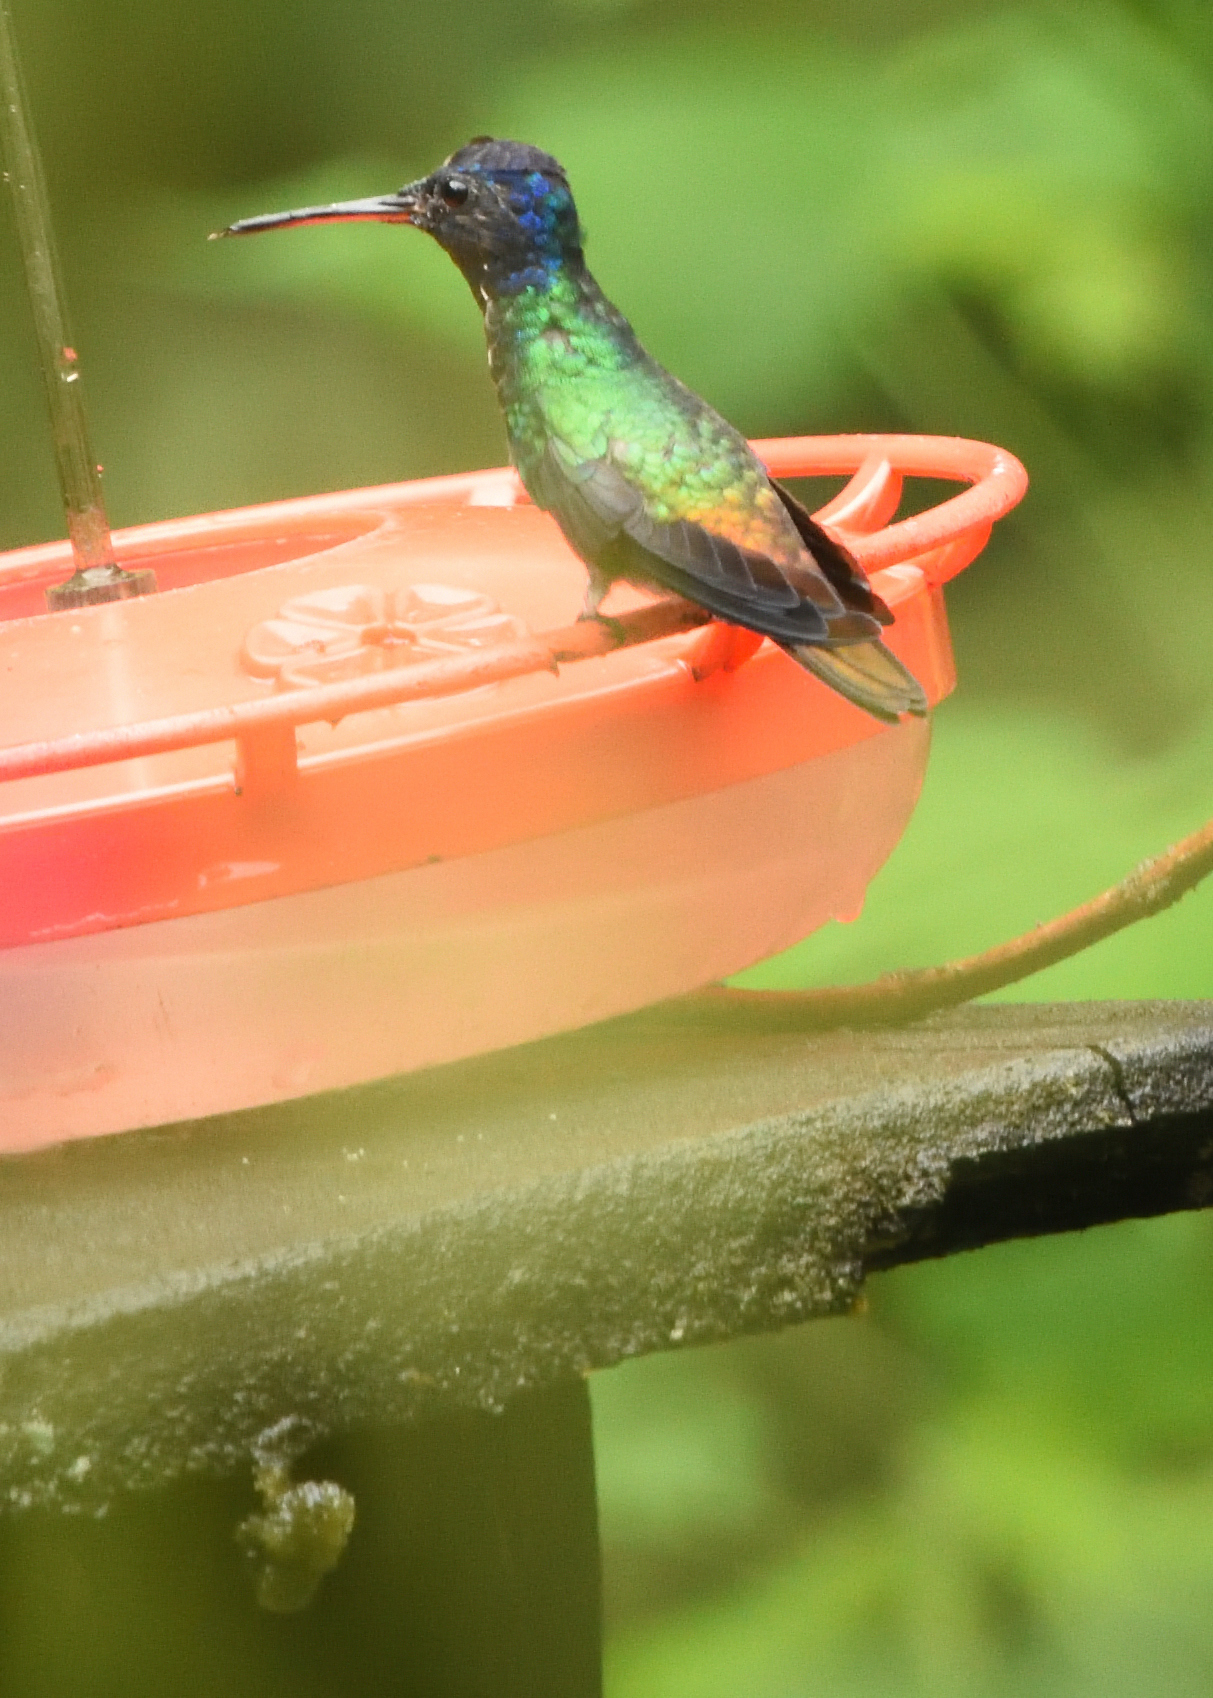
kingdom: Animalia
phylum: Chordata
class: Aves
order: Apodiformes
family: Trochilidae
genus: Chrysuronia
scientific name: Chrysuronia oenone
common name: Golden-tailed sapphire
